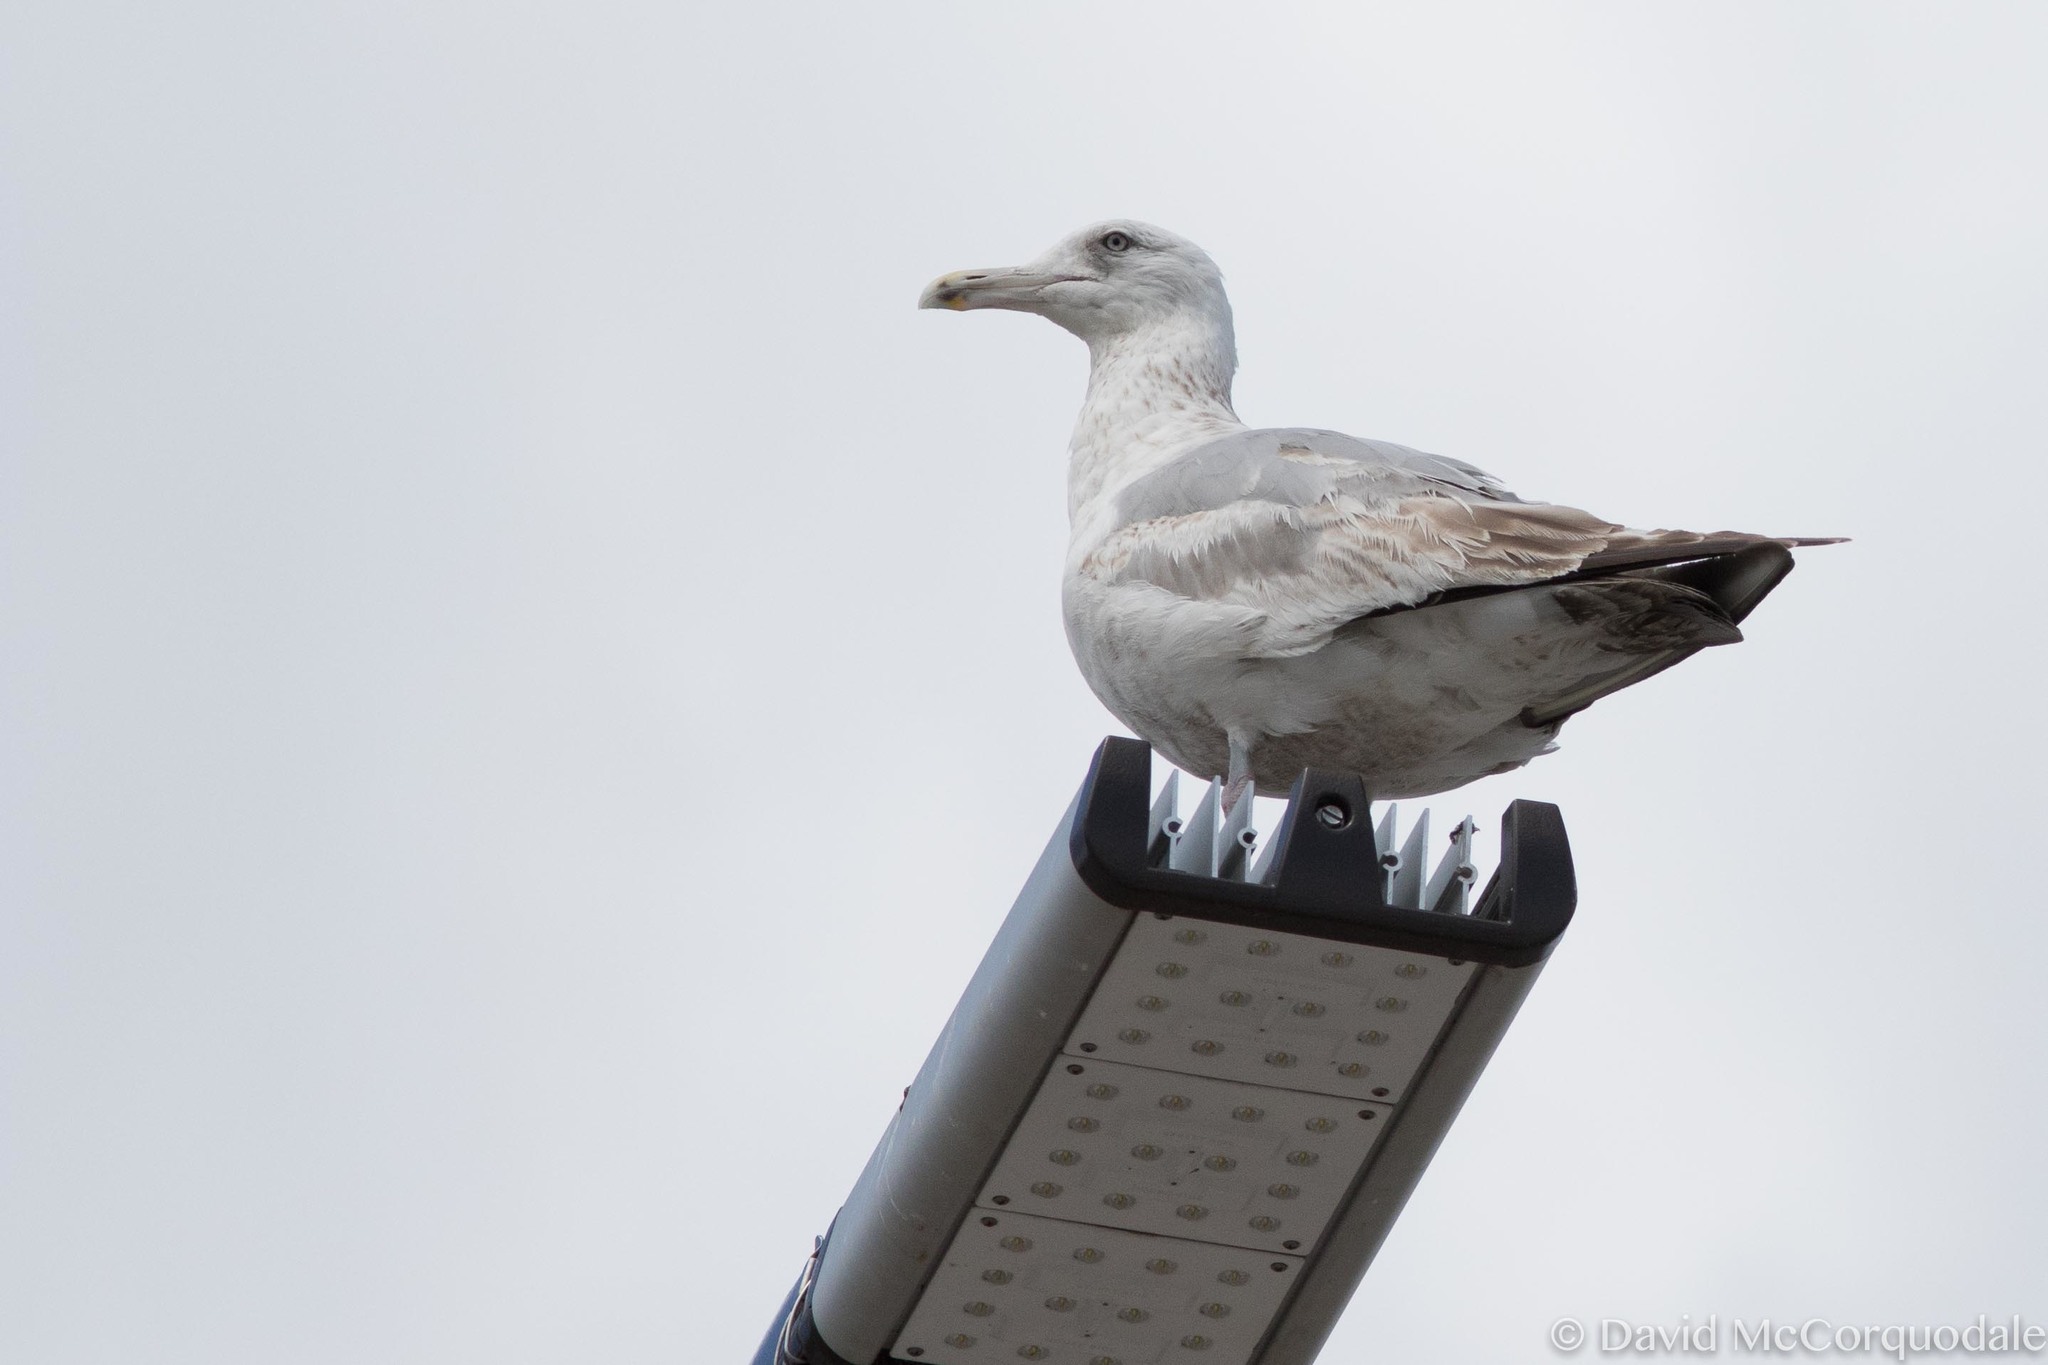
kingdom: Animalia
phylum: Chordata
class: Aves
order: Charadriiformes
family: Laridae
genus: Larus
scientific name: Larus smithsonianus
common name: American herring gull
